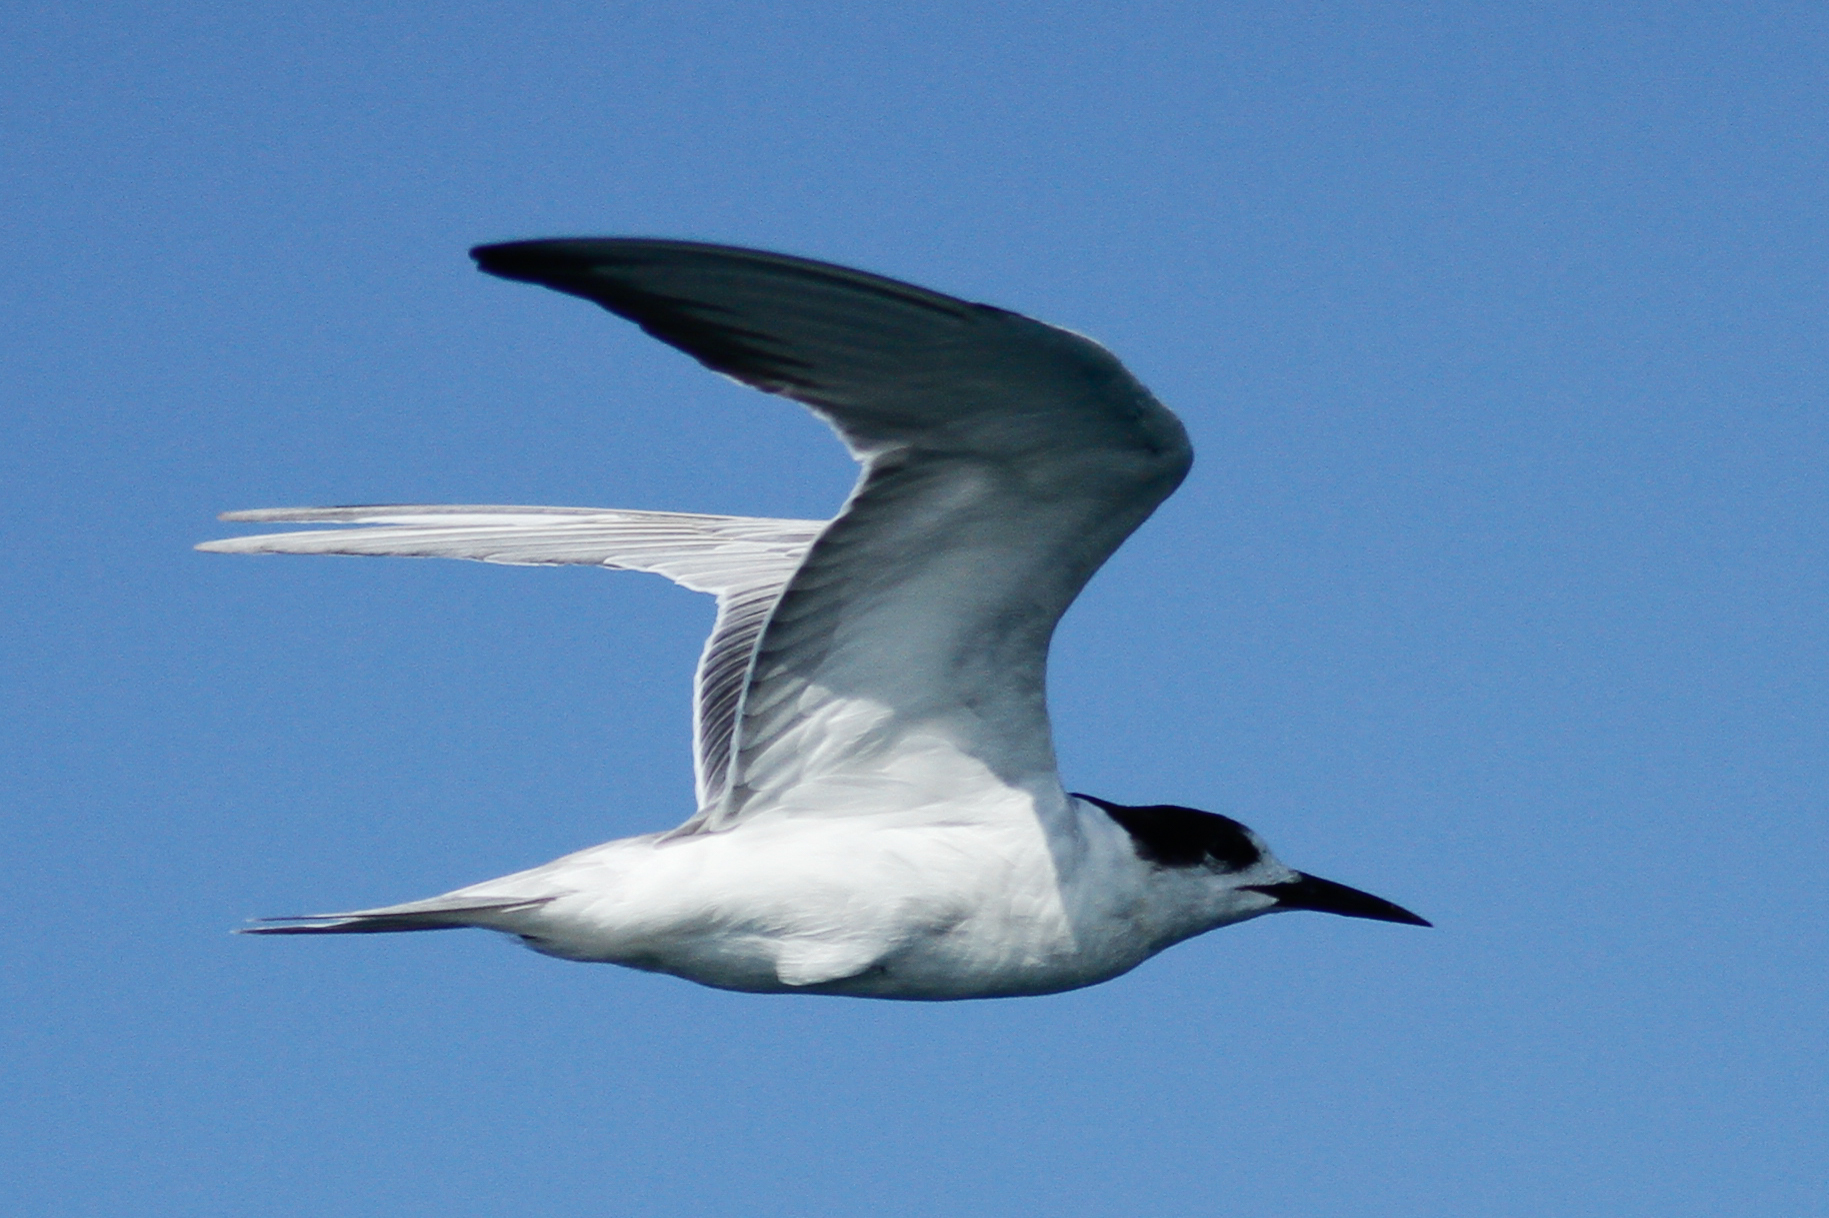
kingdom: Animalia
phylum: Chordata
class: Aves
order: Charadriiformes
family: Laridae
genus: Sterna
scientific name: Sterna hirundo
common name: Common tern
